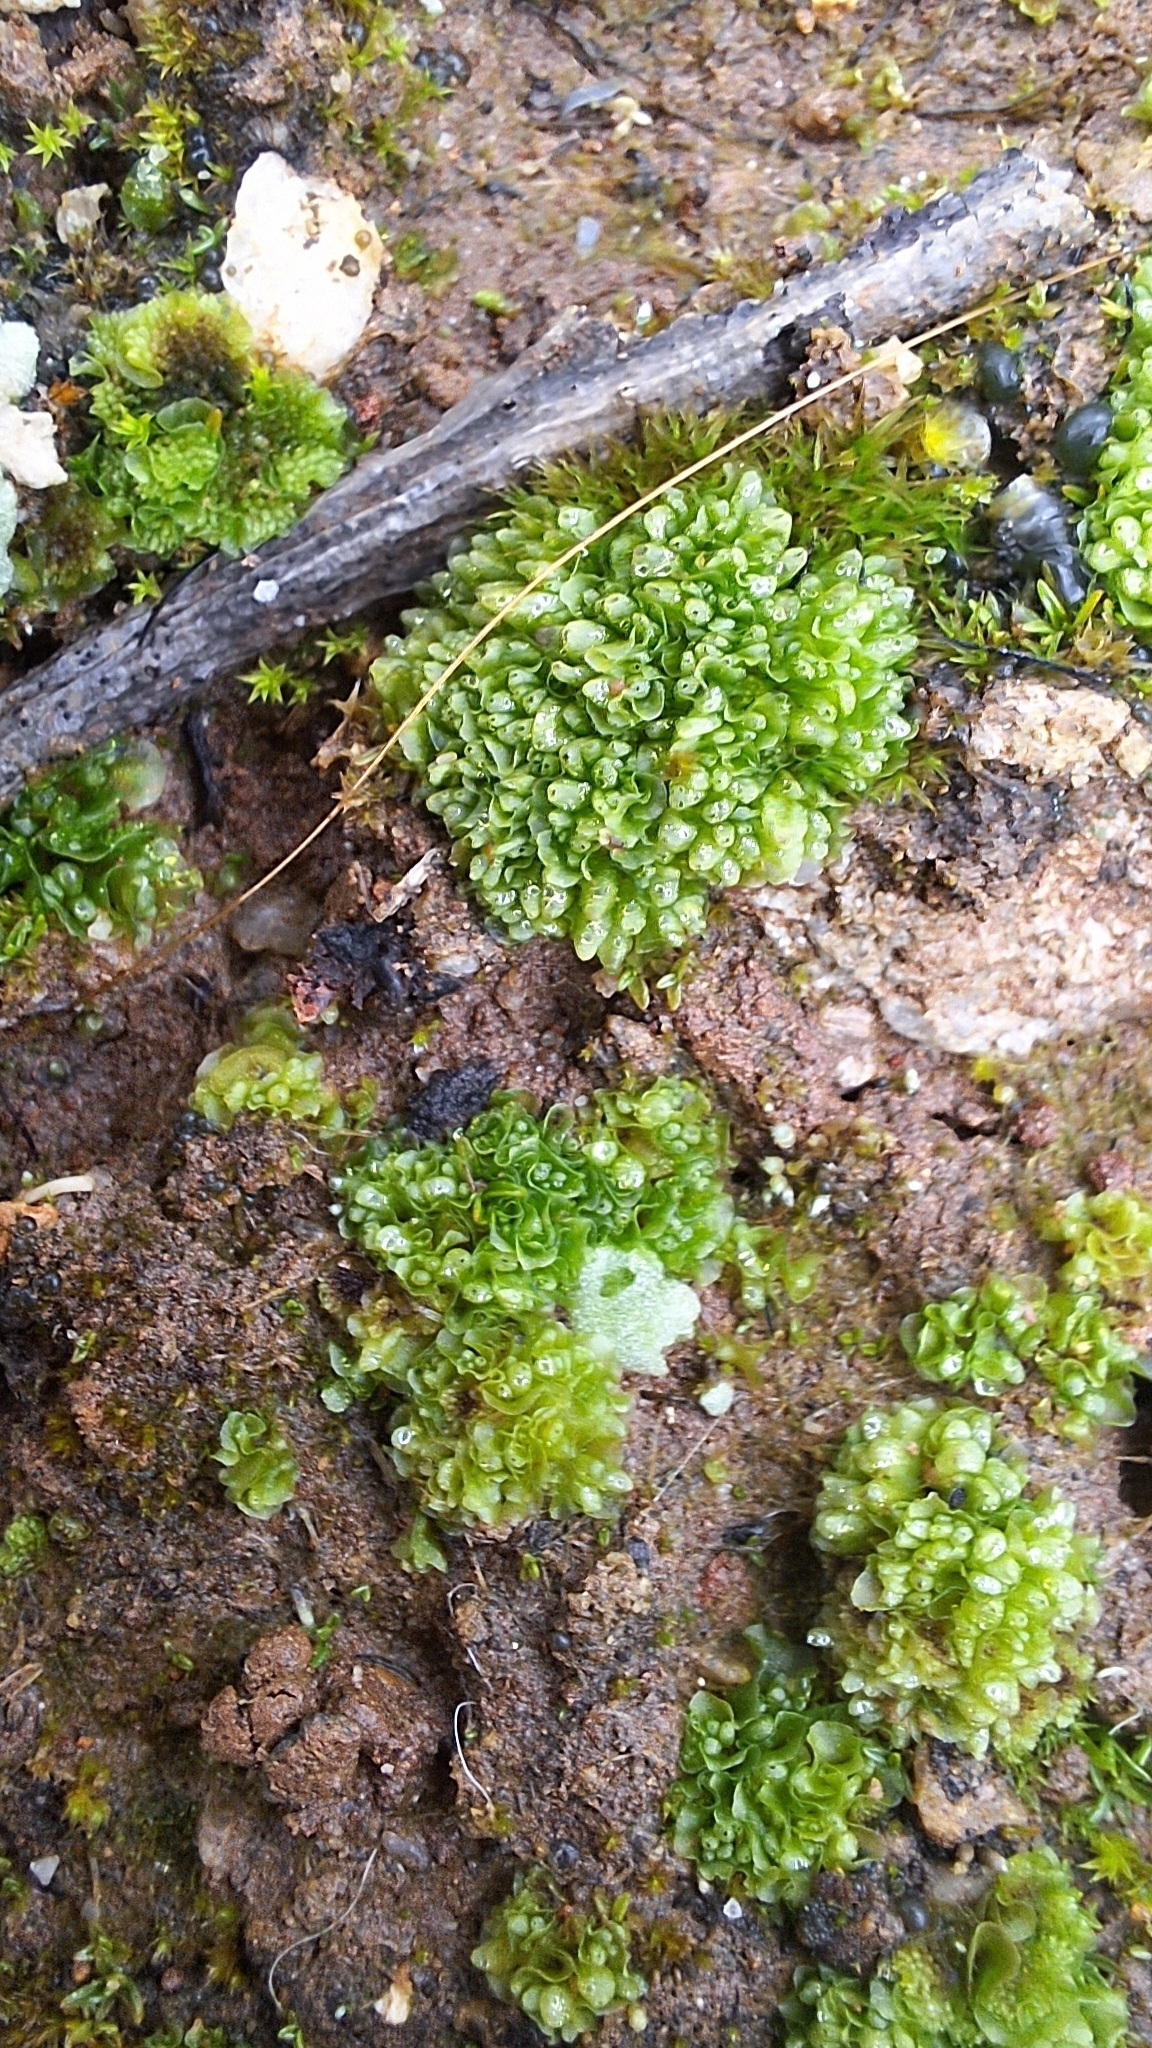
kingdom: Plantae
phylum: Marchantiophyta
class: Marchantiopsida
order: Sphaerocarpales
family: Sphaerocarpaceae
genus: Sphaerocarpos
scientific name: Sphaerocarpos texanus
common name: Texas balloonwort
